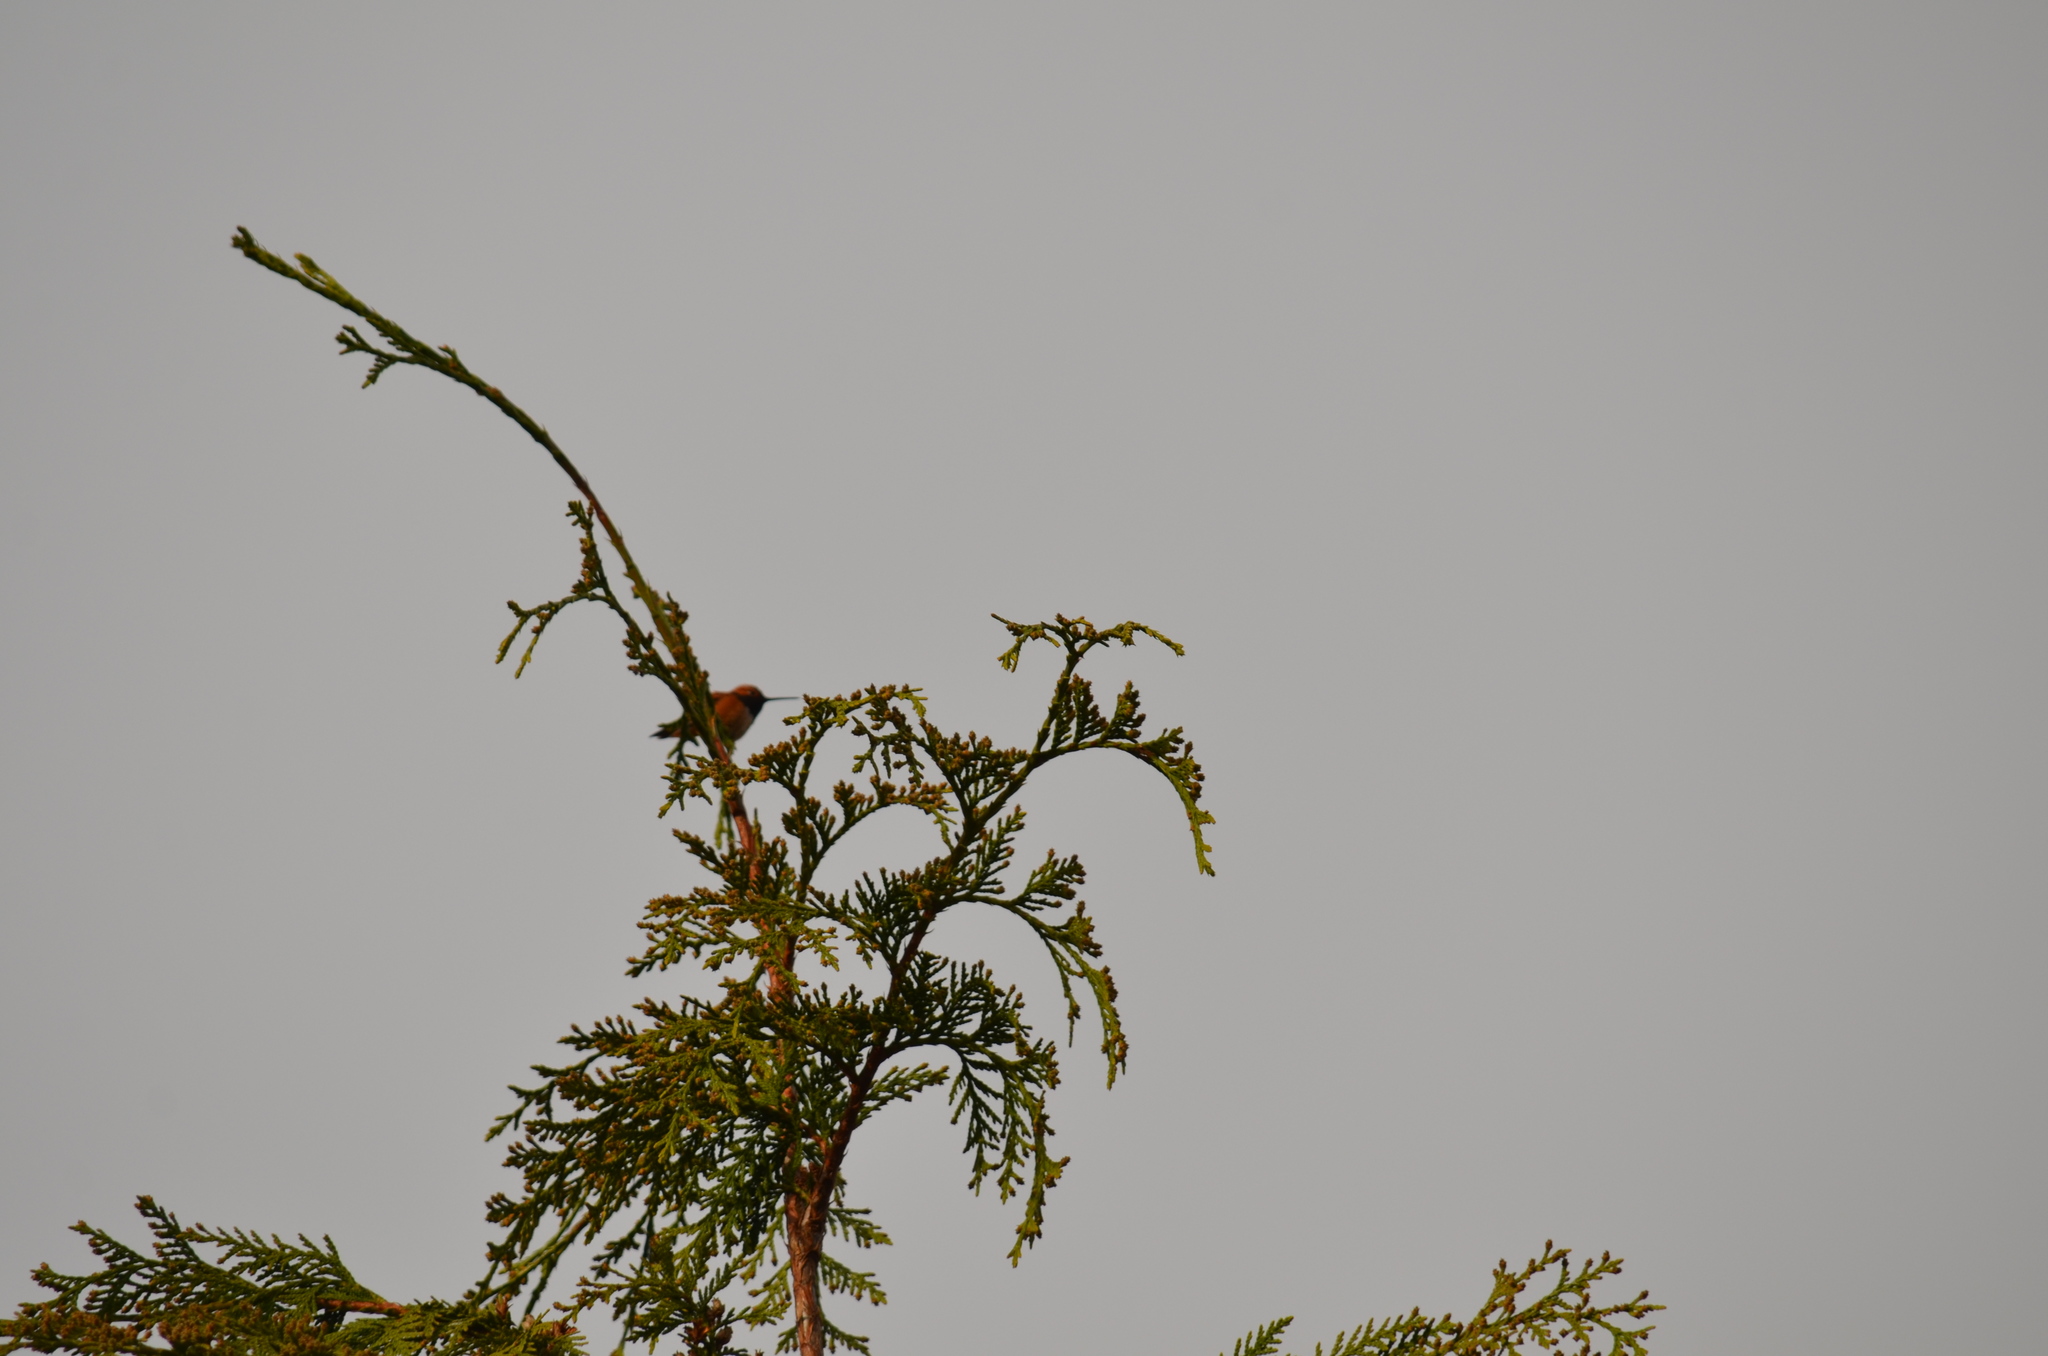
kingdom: Animalia
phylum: Chordata
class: Aves
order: Apodiformes
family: Trochilidae
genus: Selasphorus
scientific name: Selasphorus rufus
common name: Rufous hummingbird
